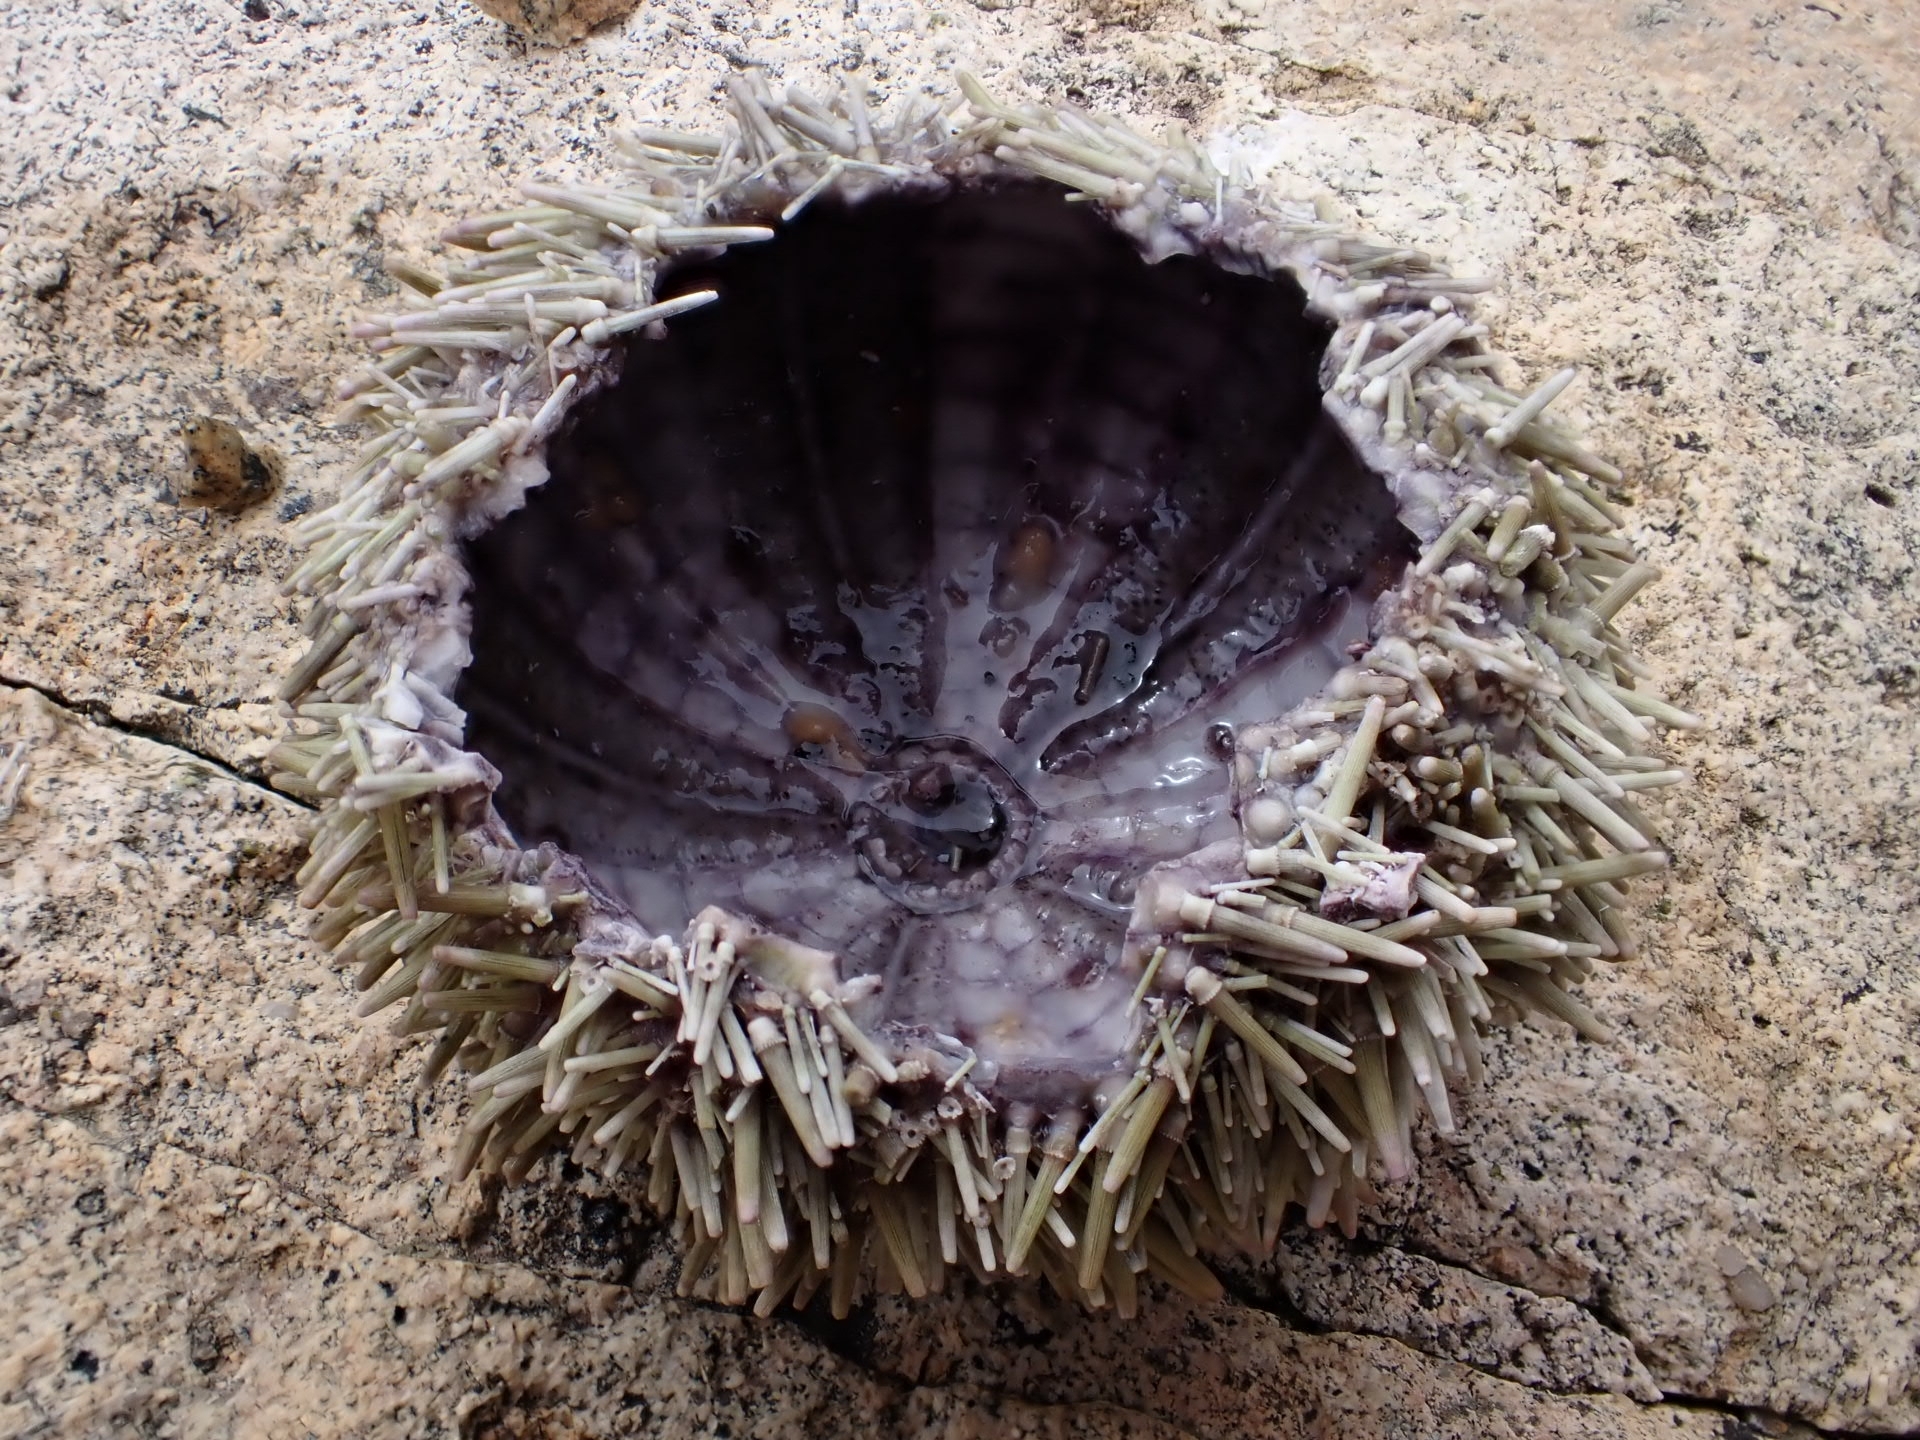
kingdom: Animalia
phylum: Echinodermata
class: Echinoidea
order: Camarodonta
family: Strongylocentrotidae
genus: Strongylocentrotus
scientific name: Strongylocentrotus droebachiensis
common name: Northern sea urchin
